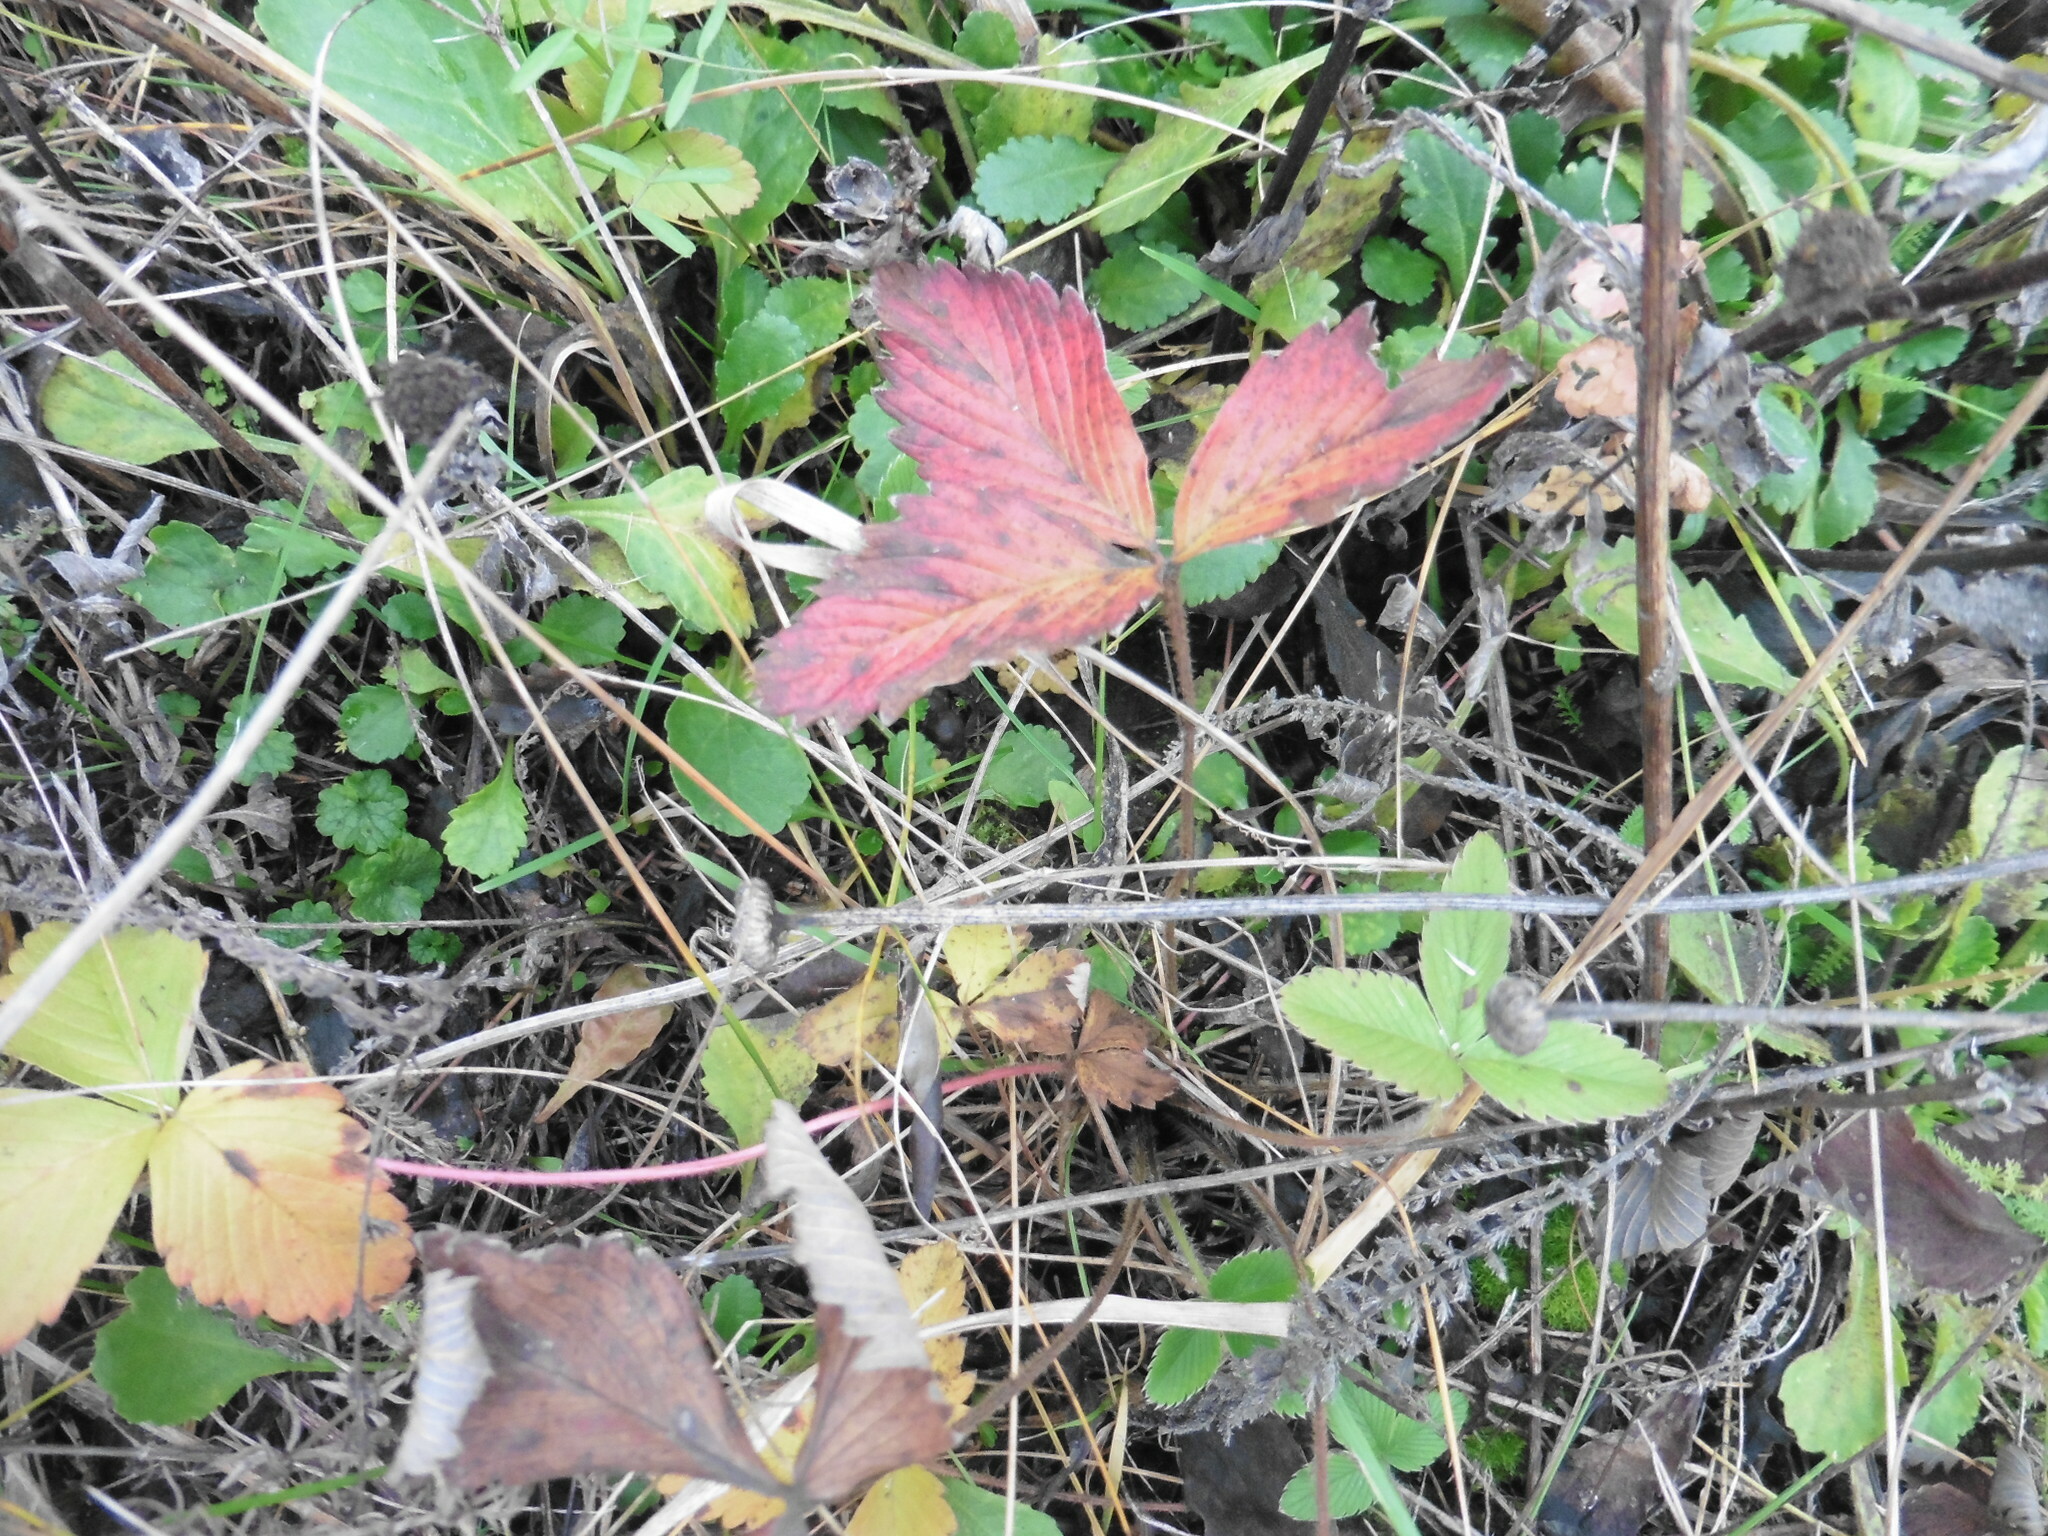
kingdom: Plantae
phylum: Tracheophyta
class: Magnoliopsida
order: Rosales
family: Rosaceae
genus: Fragaria
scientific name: Fragaria viridis
